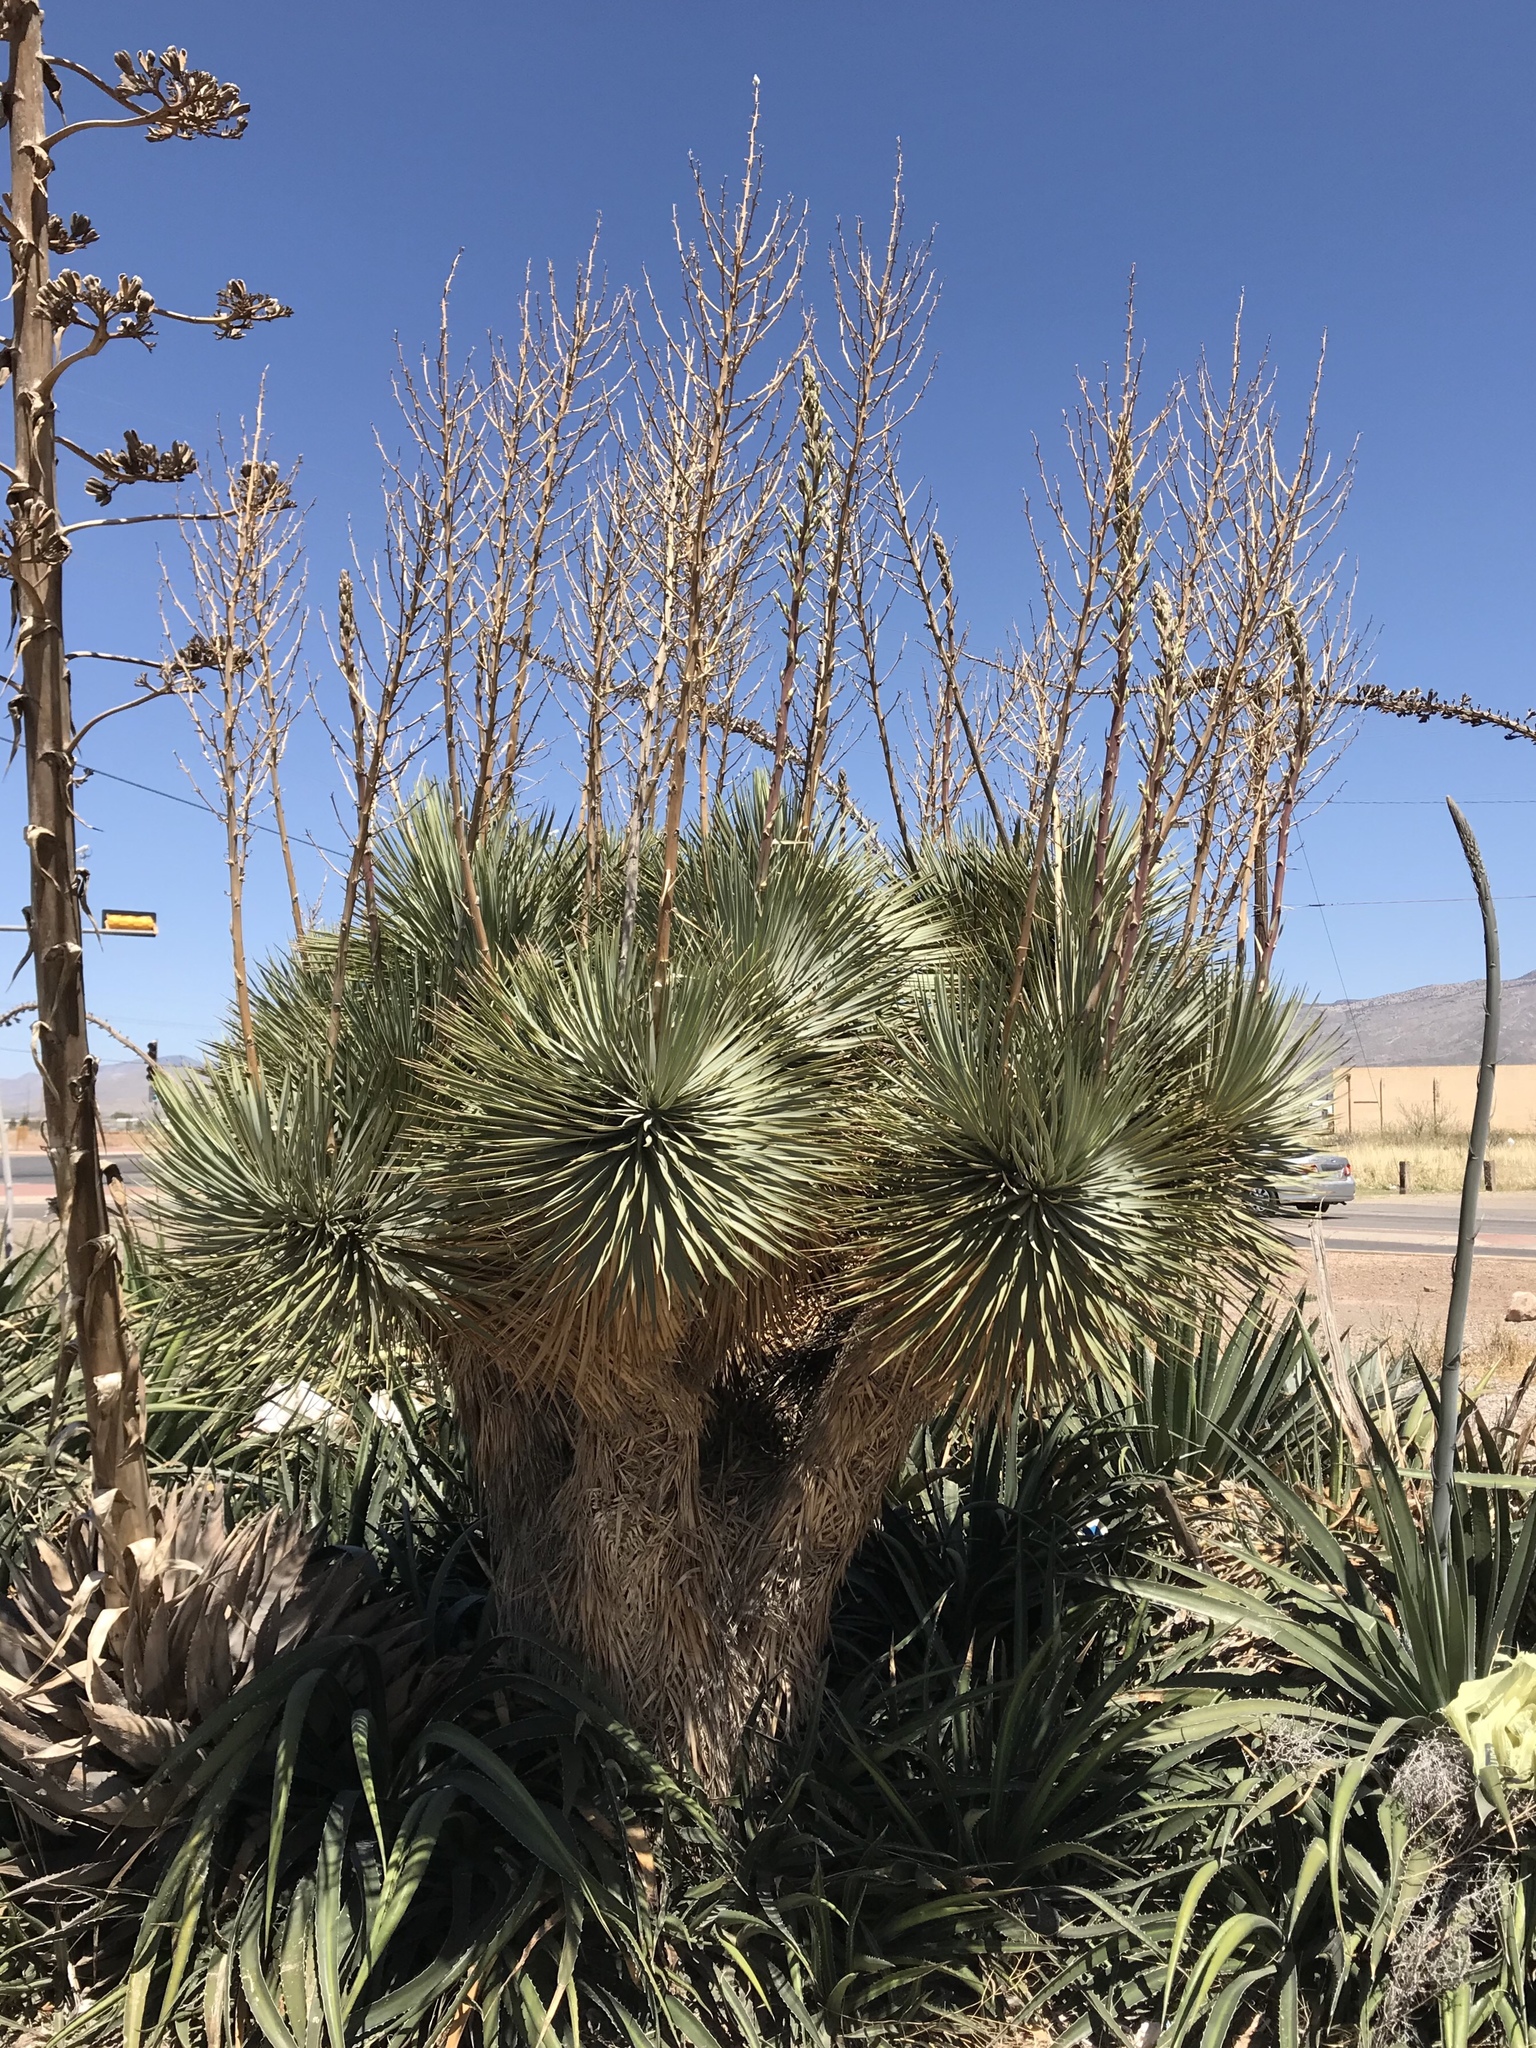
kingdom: Plantae
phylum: Tracheophyta
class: Liliopsida
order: Asparagales
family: Asparagaceae
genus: Yucca
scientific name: Yucca elata
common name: Palmella
